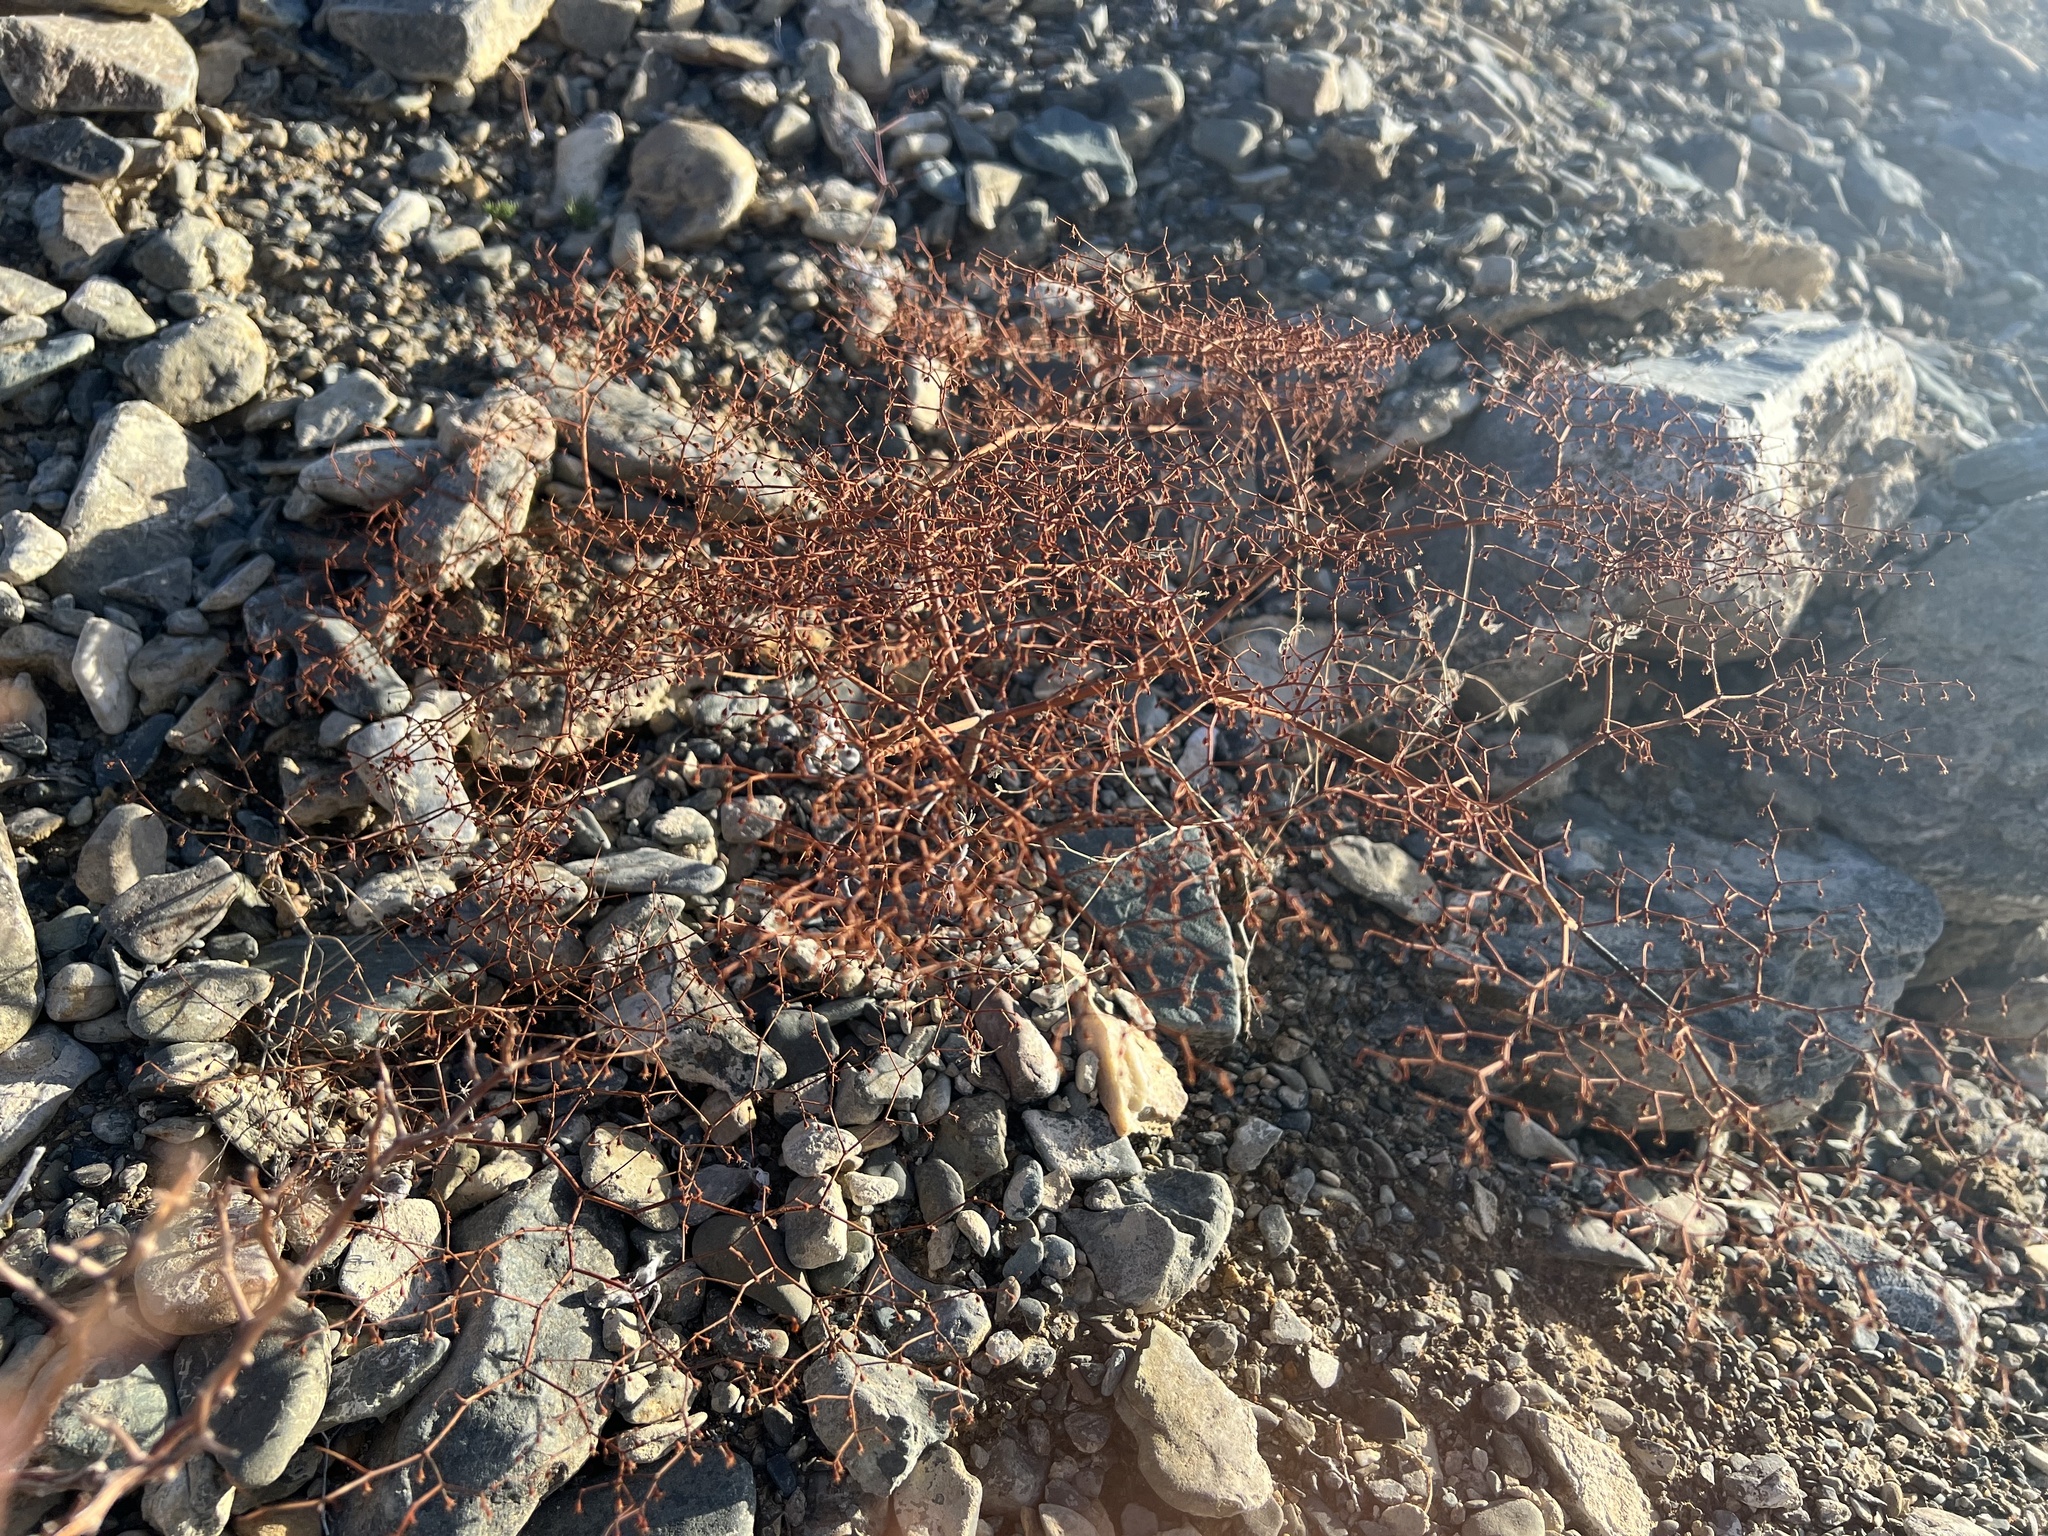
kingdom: Plantae
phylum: Tracheophyta
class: Magnoliopsida
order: Caryophyllales
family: Polygonaceae
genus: Eriogonum
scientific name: Eriogonum brachypodum
